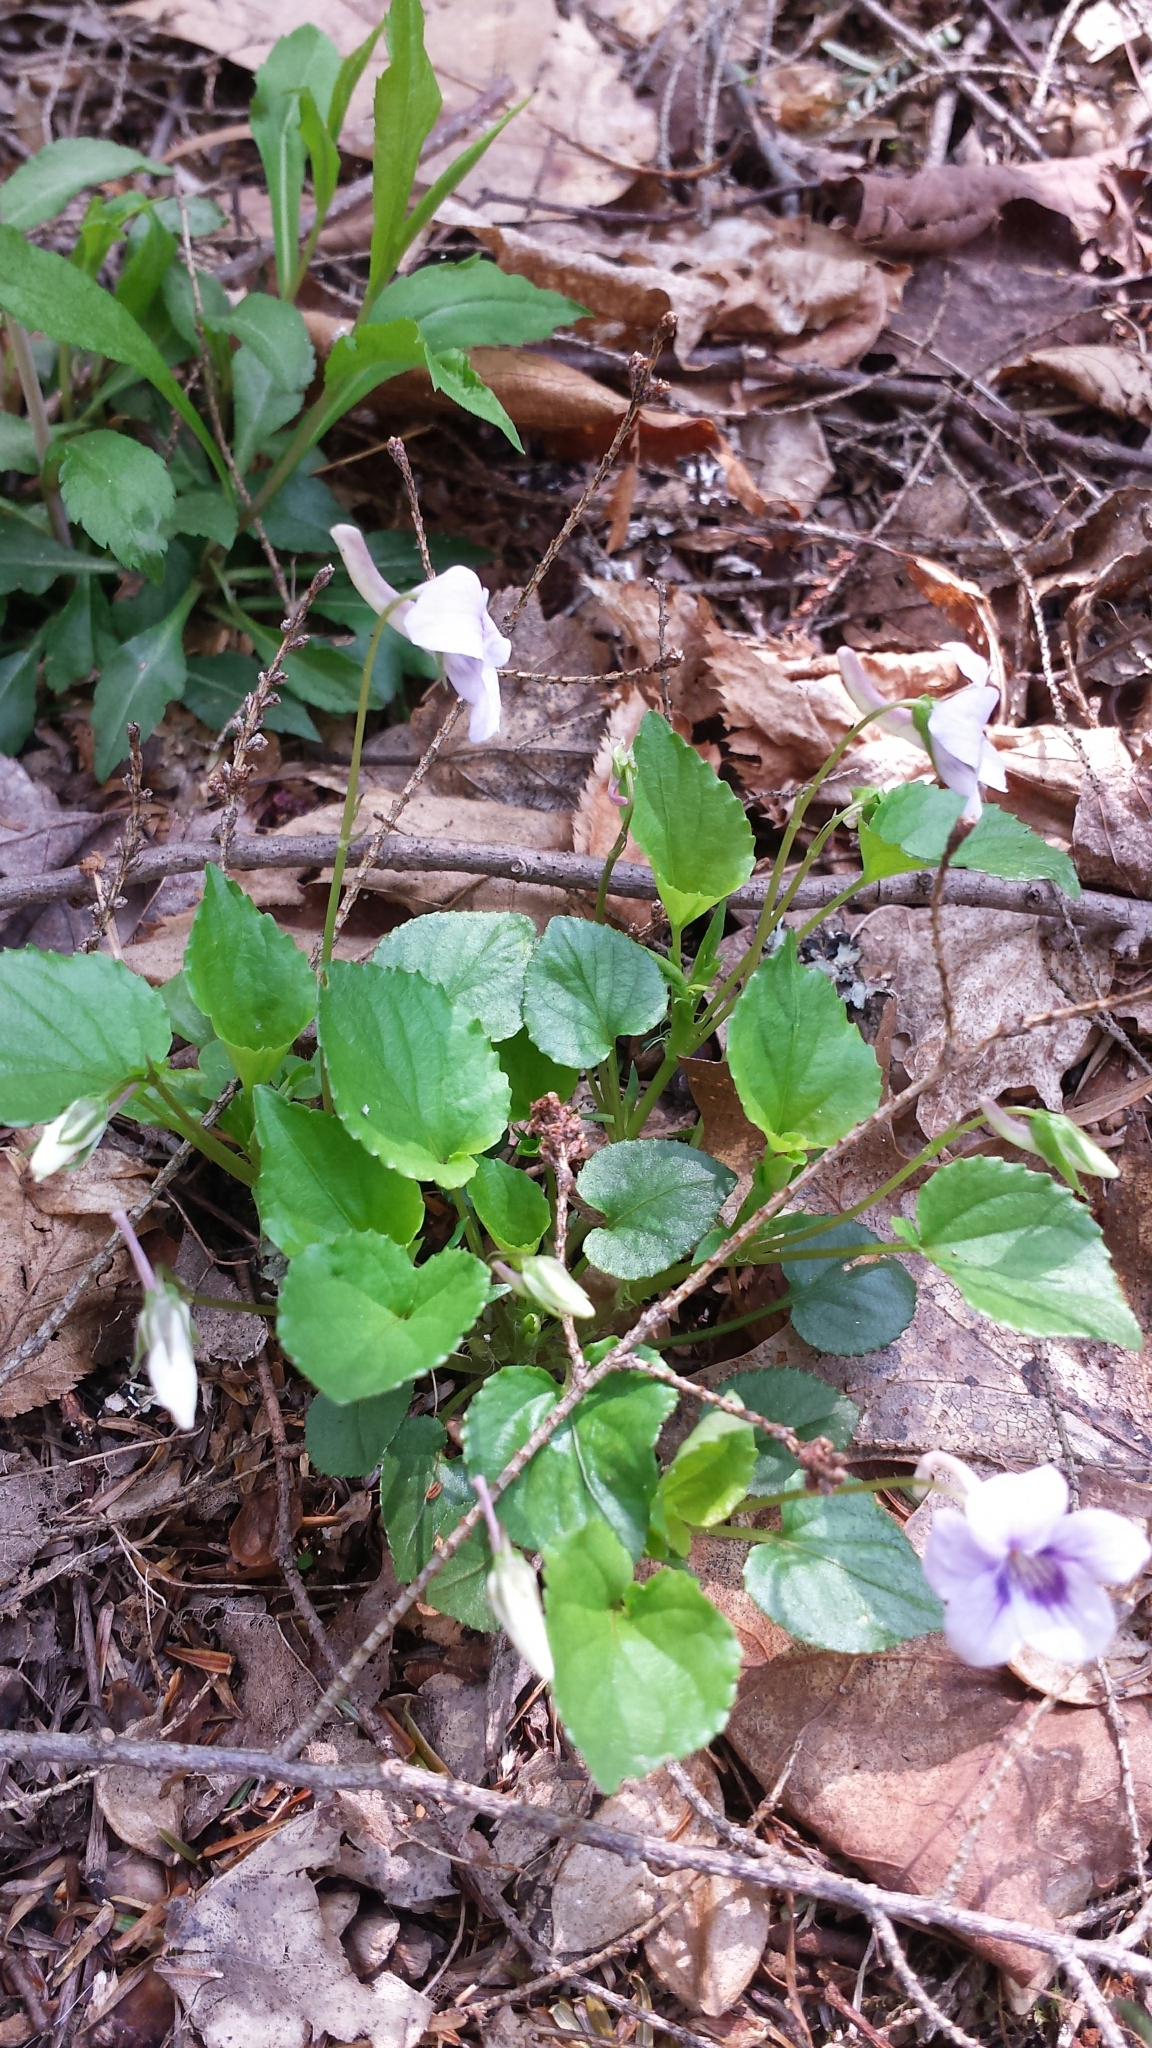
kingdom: Plantae
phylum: Tracheophyta
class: Magnoliopsida
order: Malpighiales
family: Violaceae
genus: Viola
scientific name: Viola rostrata
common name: Long-spur violet
